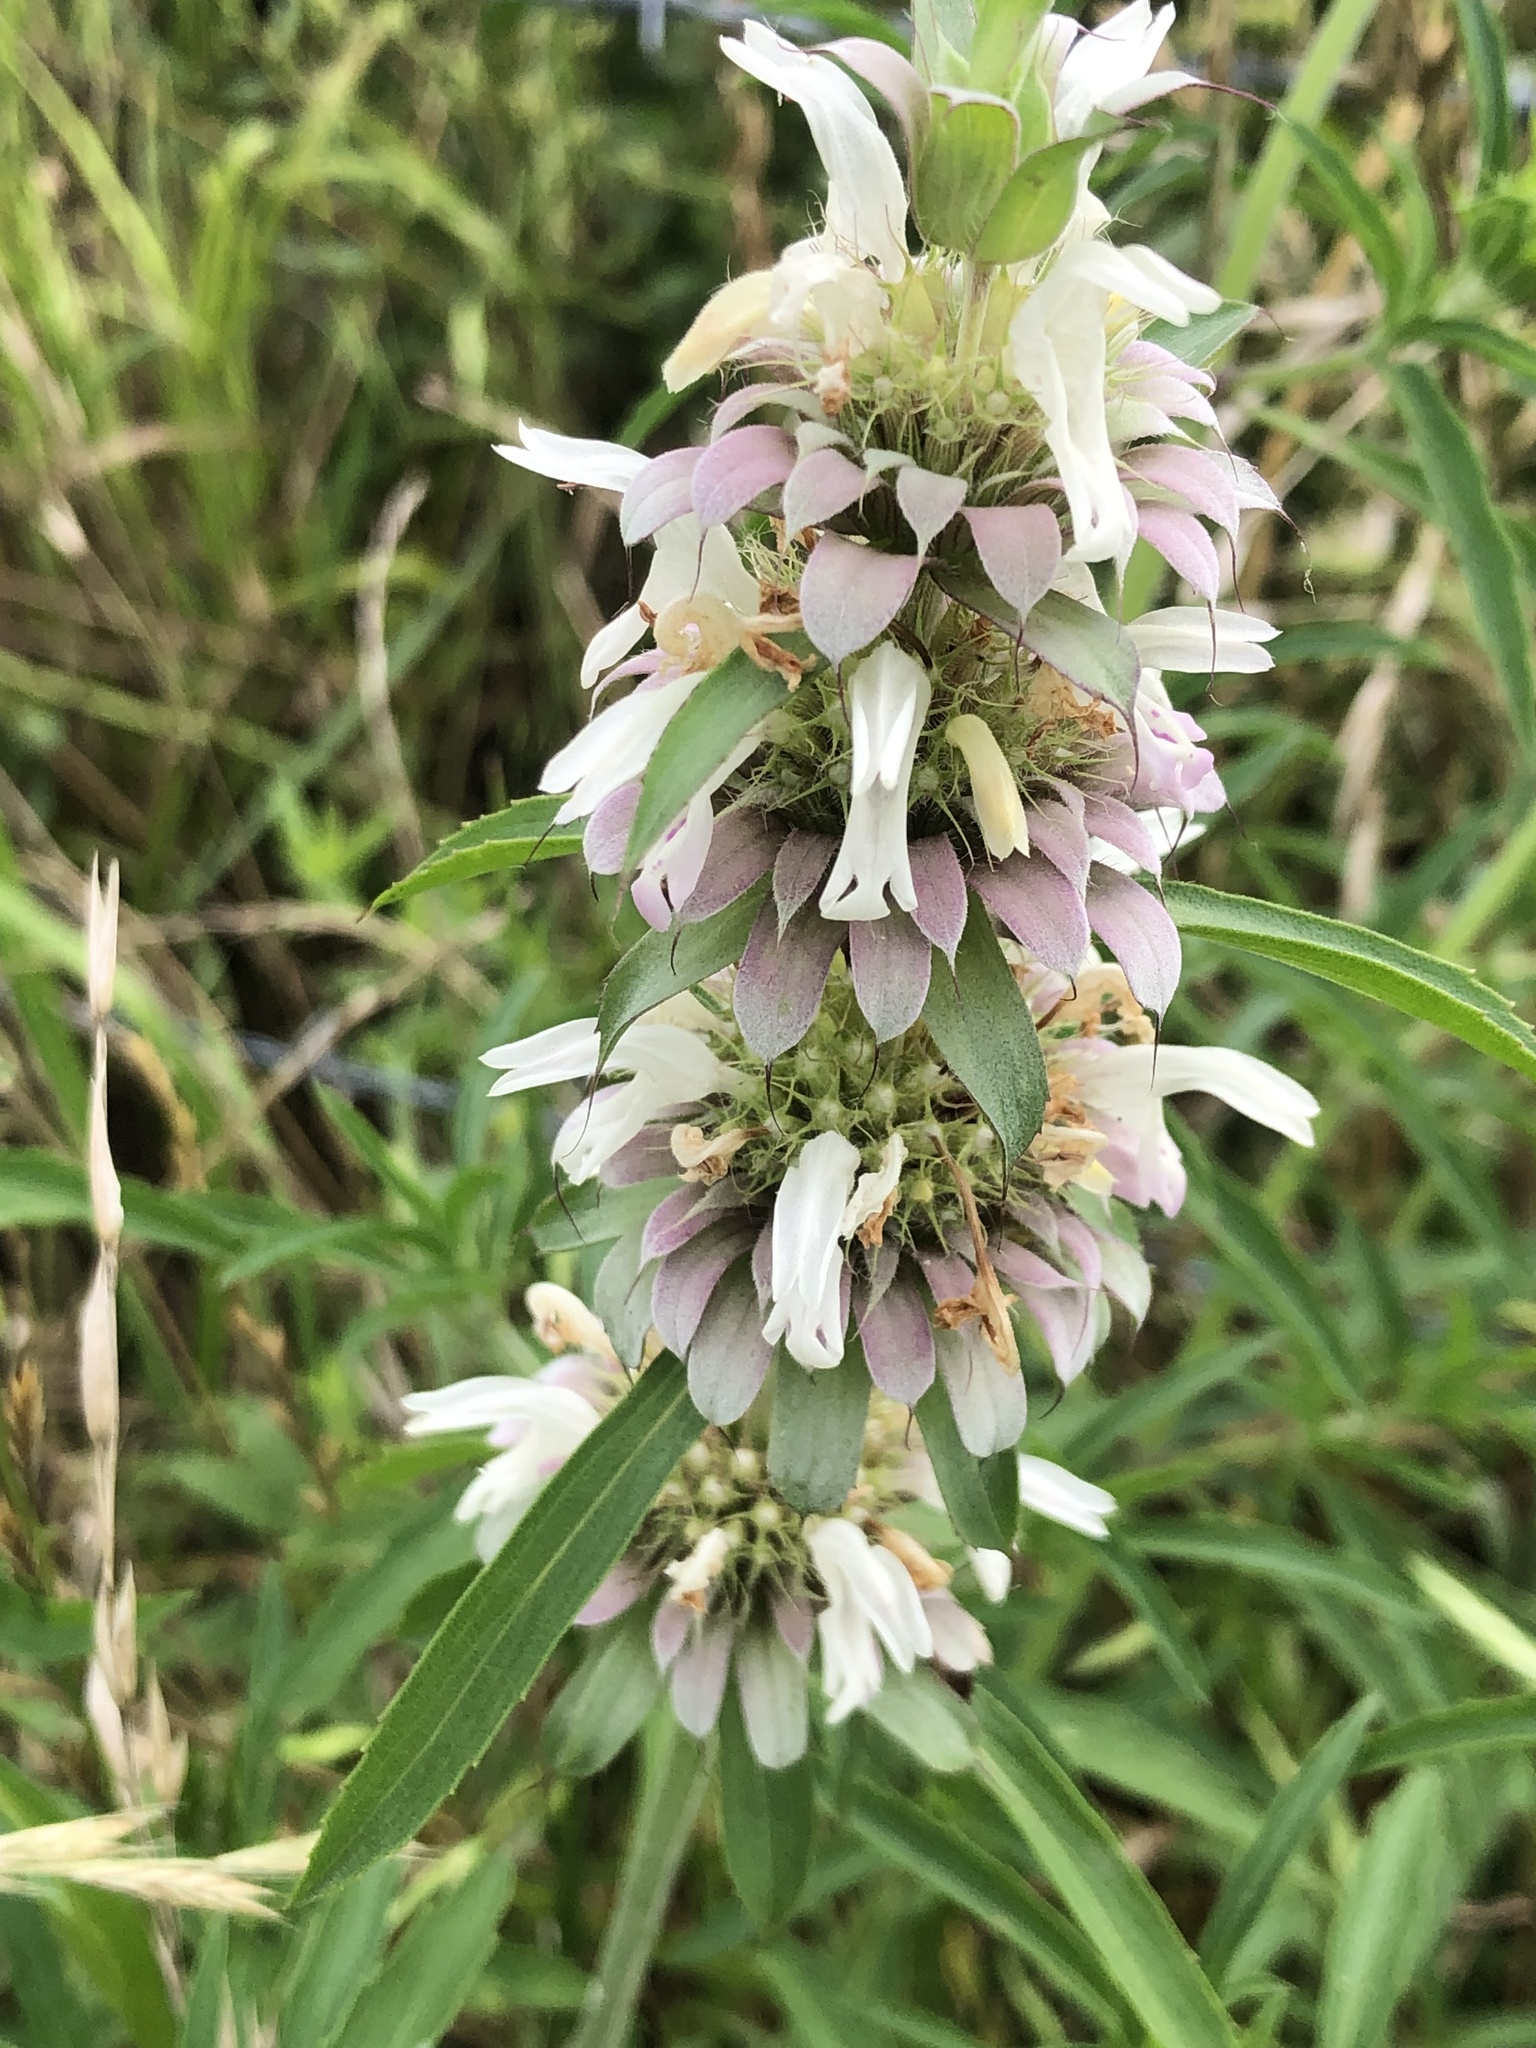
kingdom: Plantae
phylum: Tracheophyta
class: Magnoliopsida
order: Lamiales
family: Lamiaceae
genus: Monarda
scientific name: Monarda citriodora
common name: Lemon beebalm
